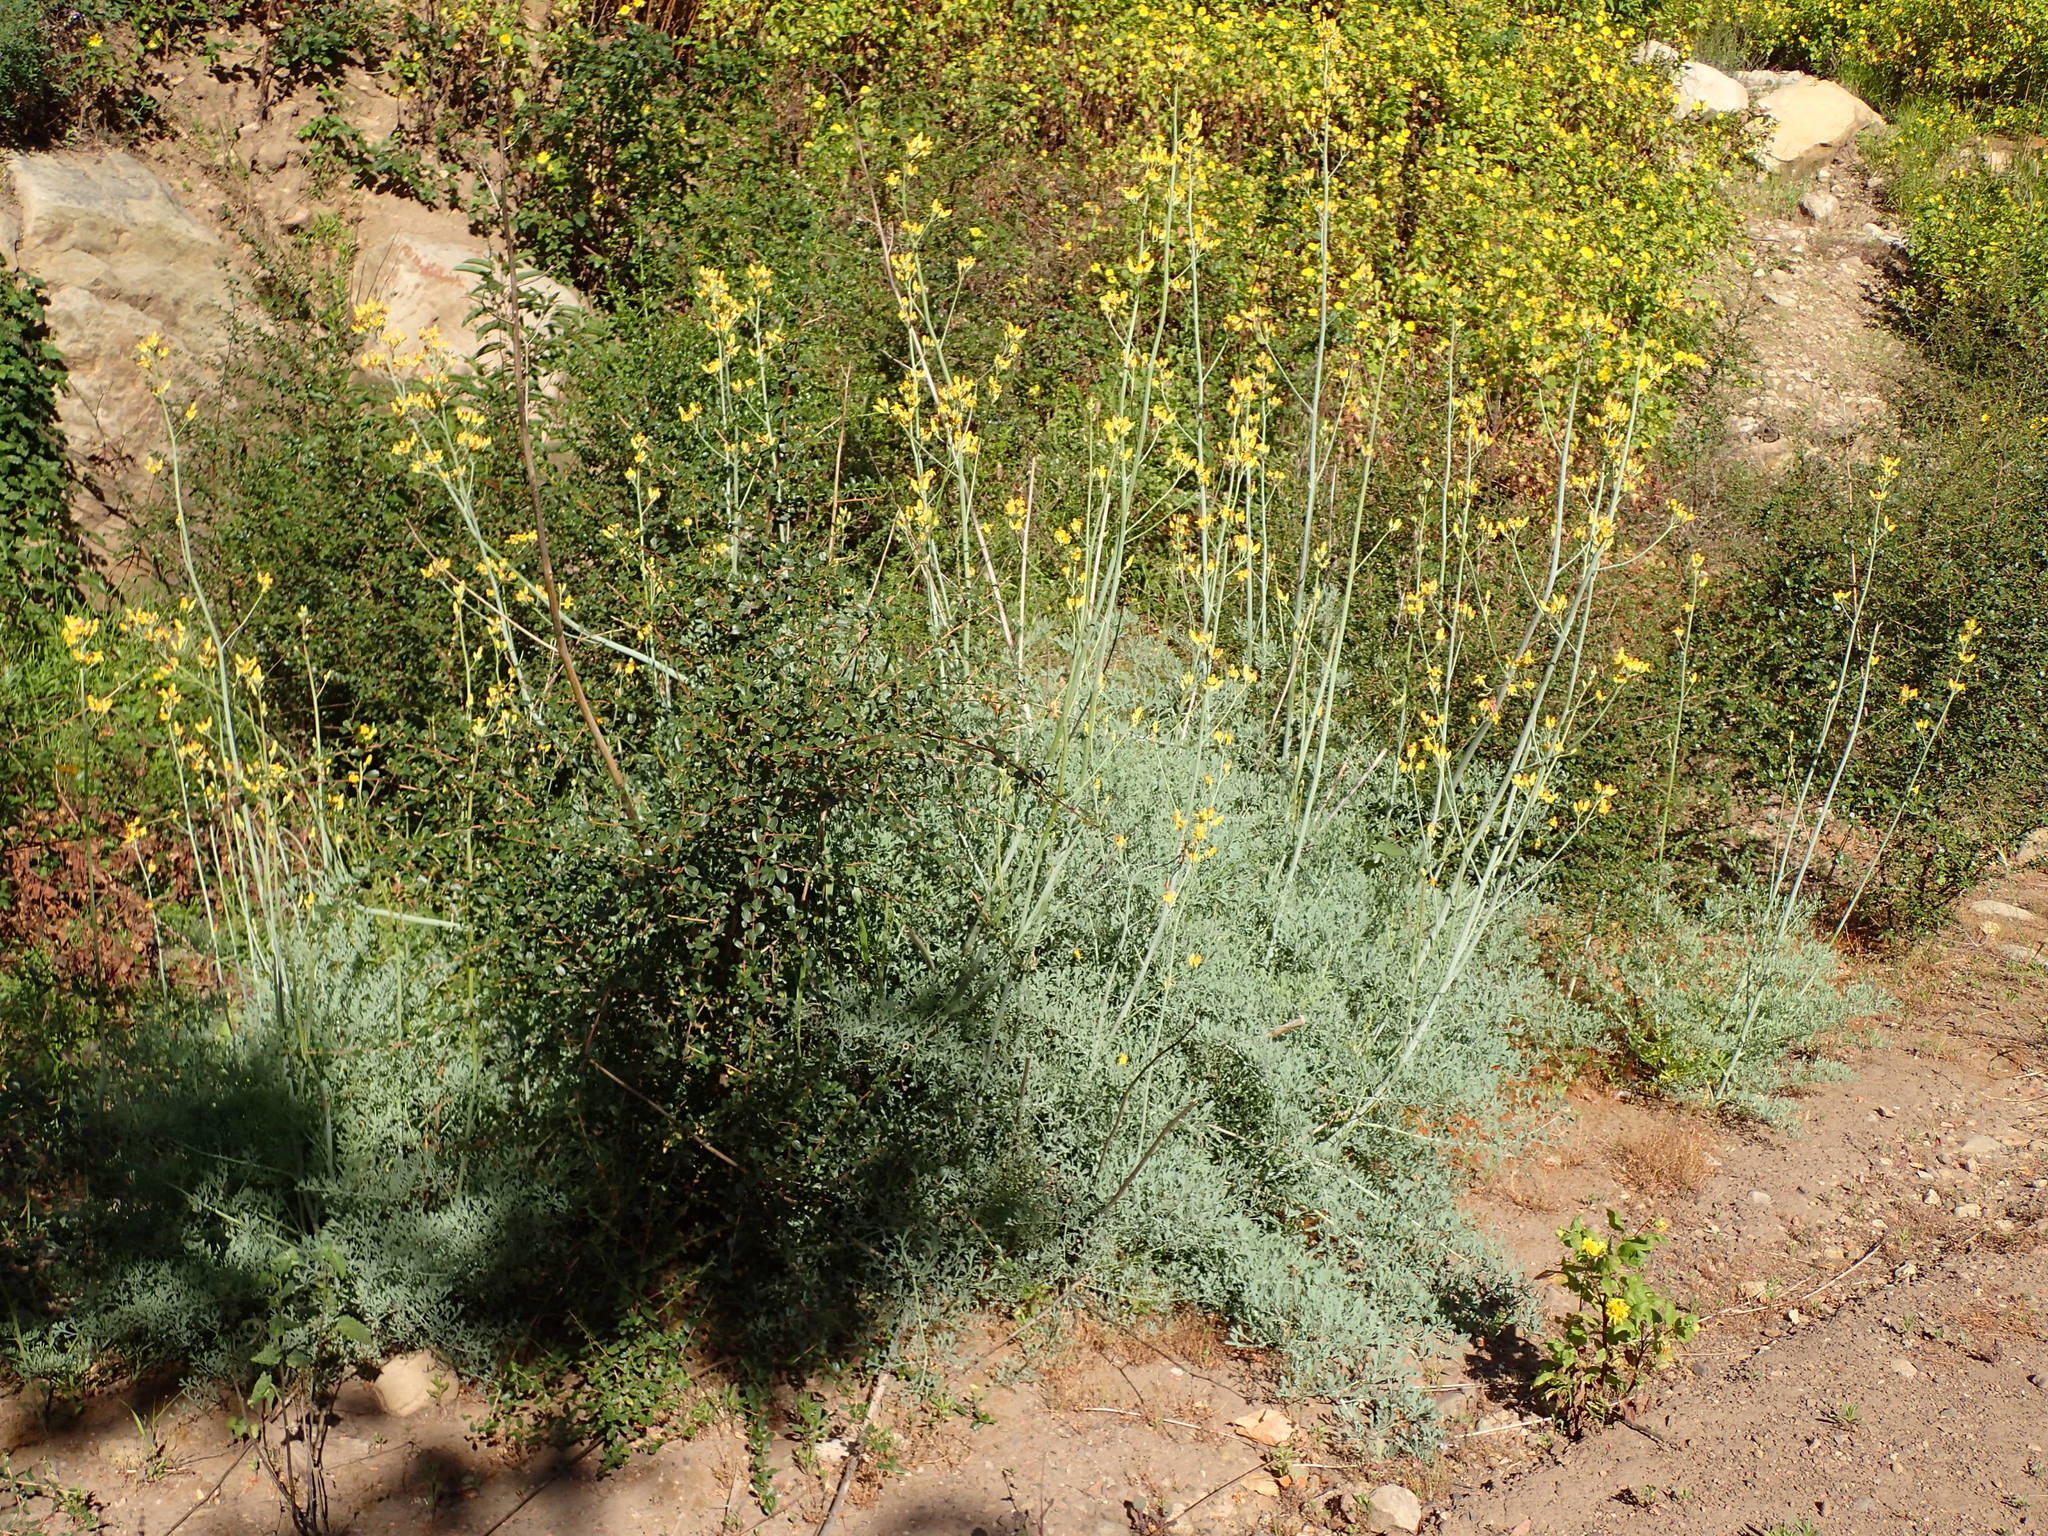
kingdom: Plantae
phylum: Tracheophyta
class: Magnoliopsida
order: Ranunculales
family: Papaveraceae
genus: Ehrendorferia
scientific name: Ehrendorferia chrysantha
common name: Golden eardrops
